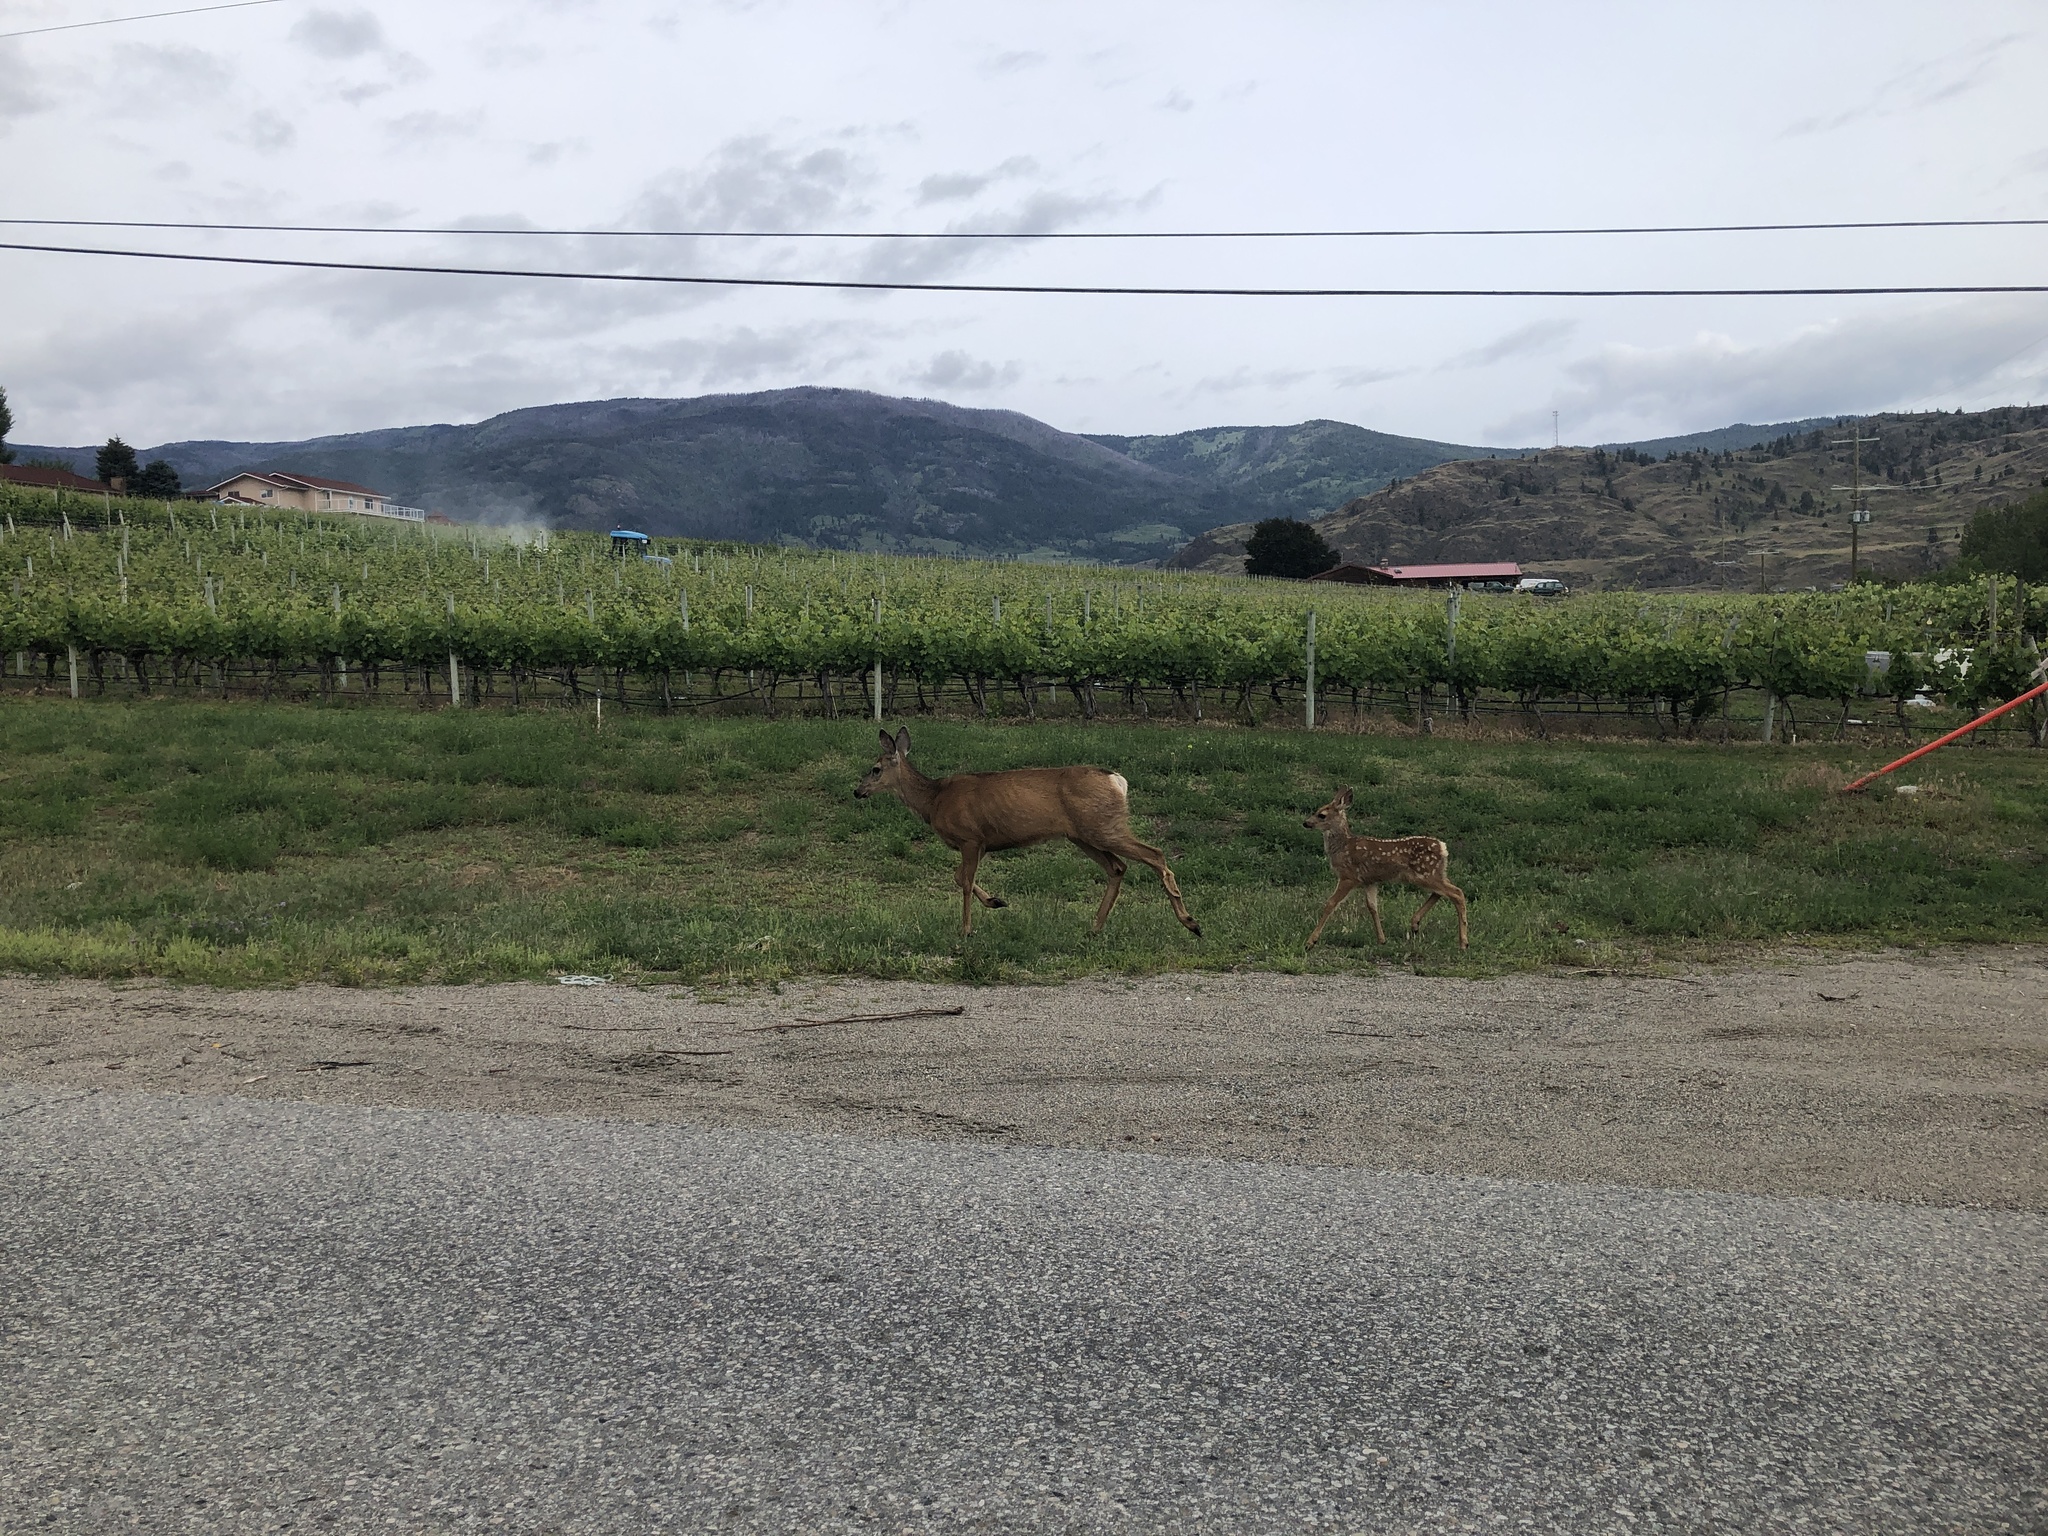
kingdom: Animalia
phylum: Chordata
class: Mammalia
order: Artiodactyla
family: Cervidae
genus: Odocoileus
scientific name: Odocoileus hemionus
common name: Mule deer
